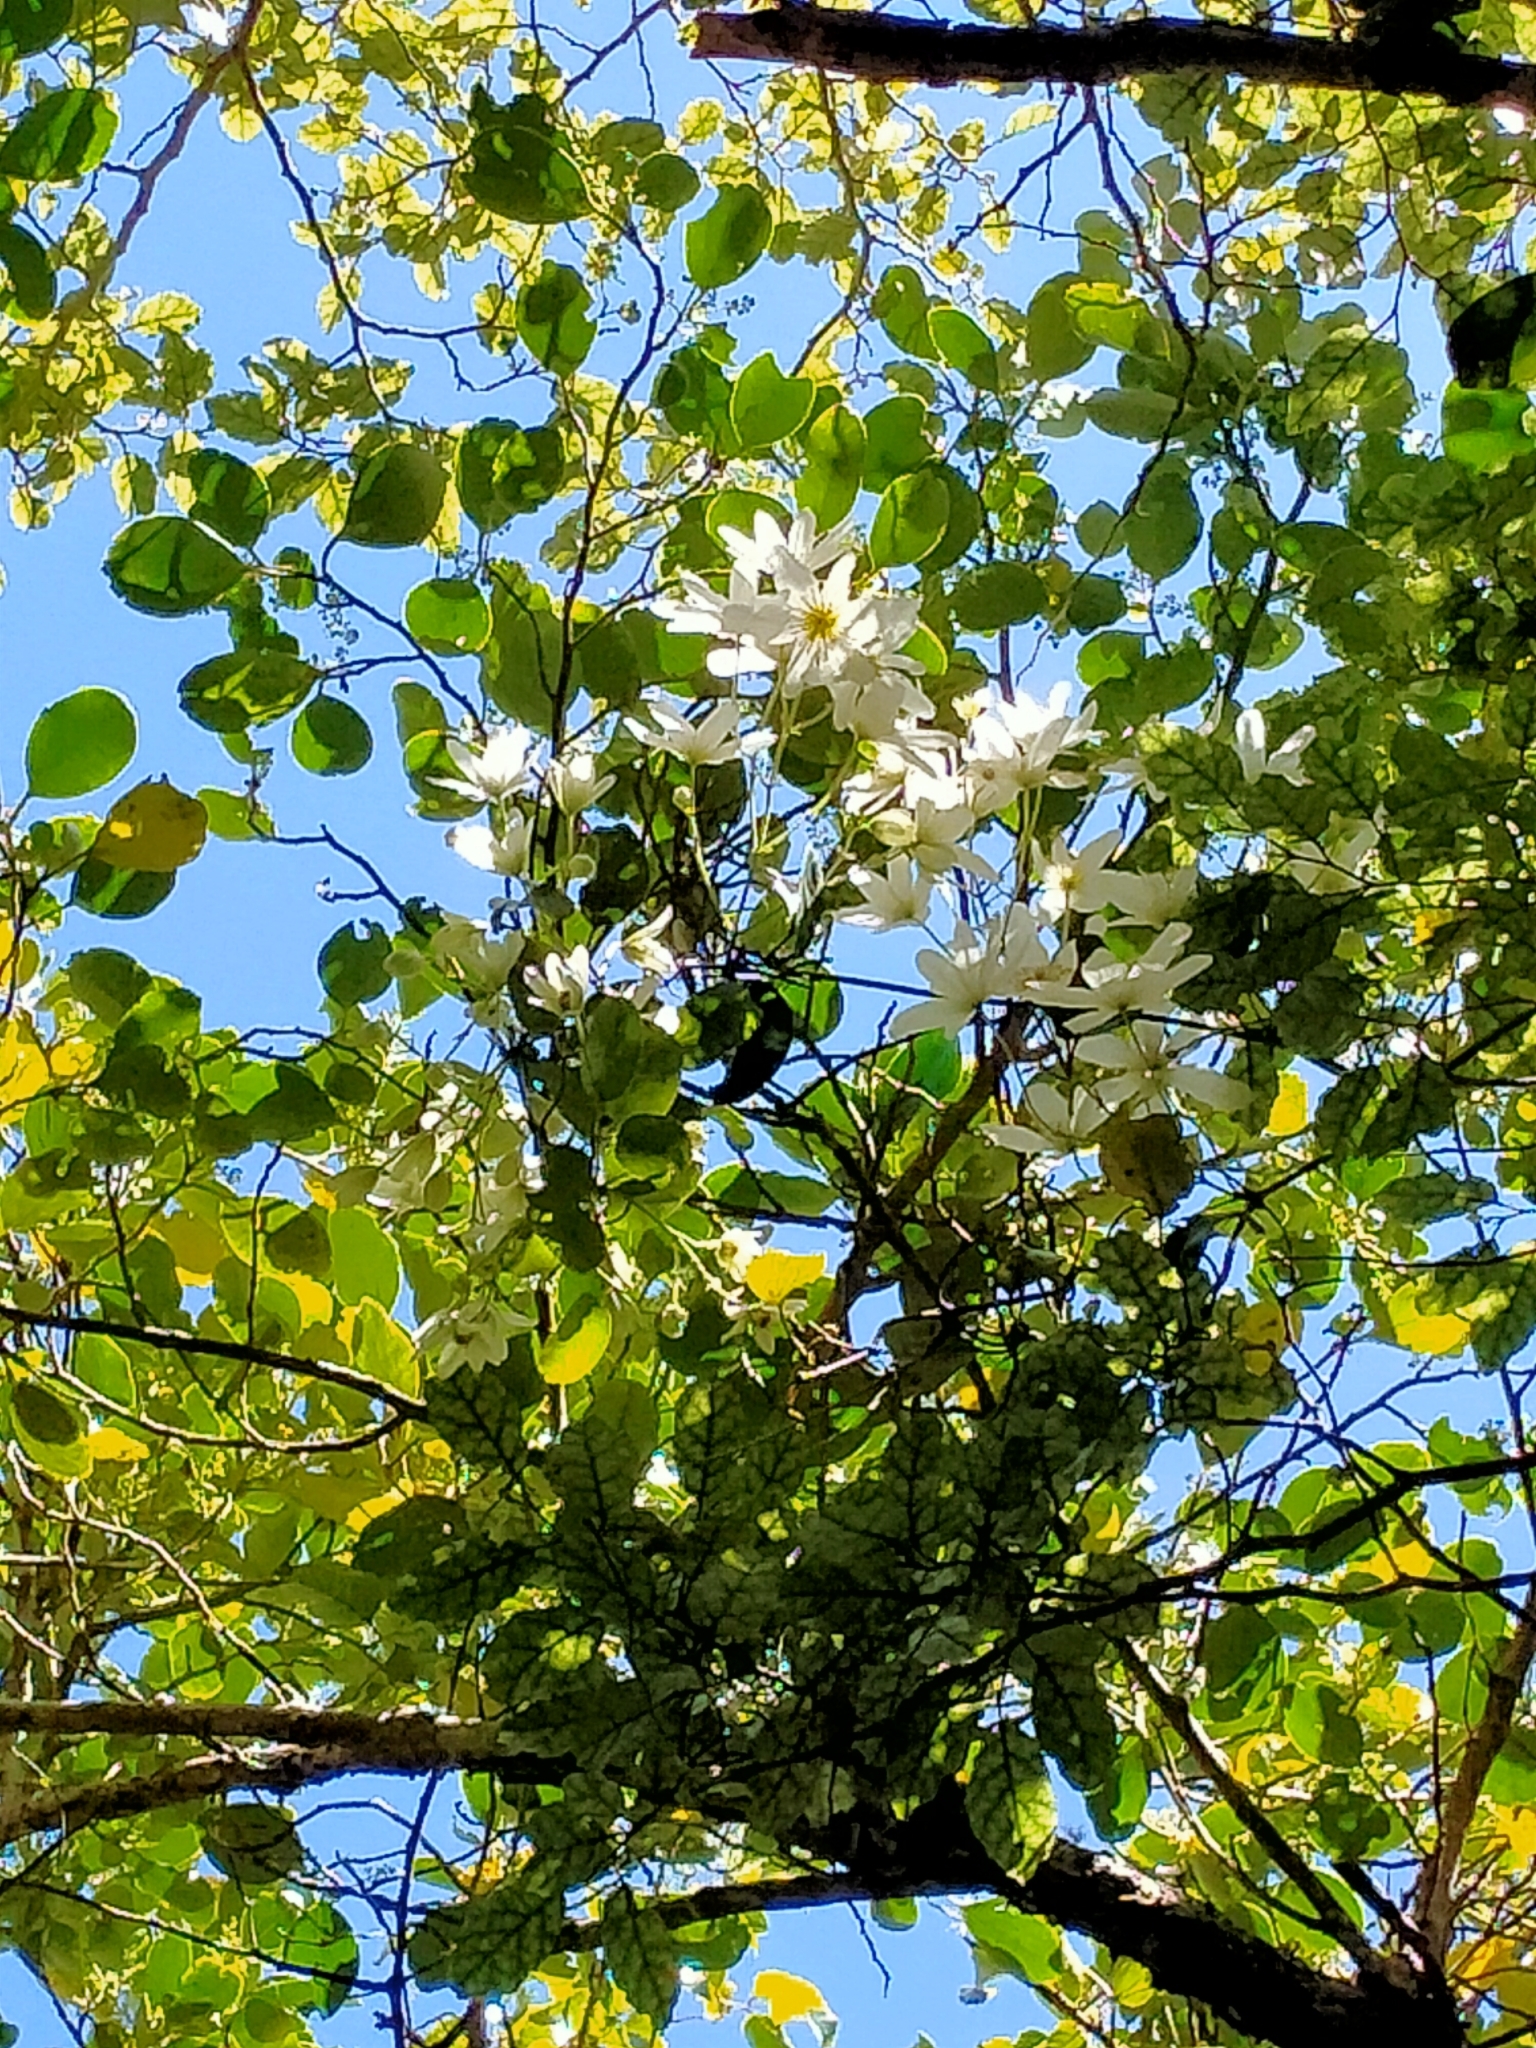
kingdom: Plantae
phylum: Tracheophyta
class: Magnoliopsida
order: Ranunculales
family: Ranunculaceae
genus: Clematis
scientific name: Clematis paniculata
